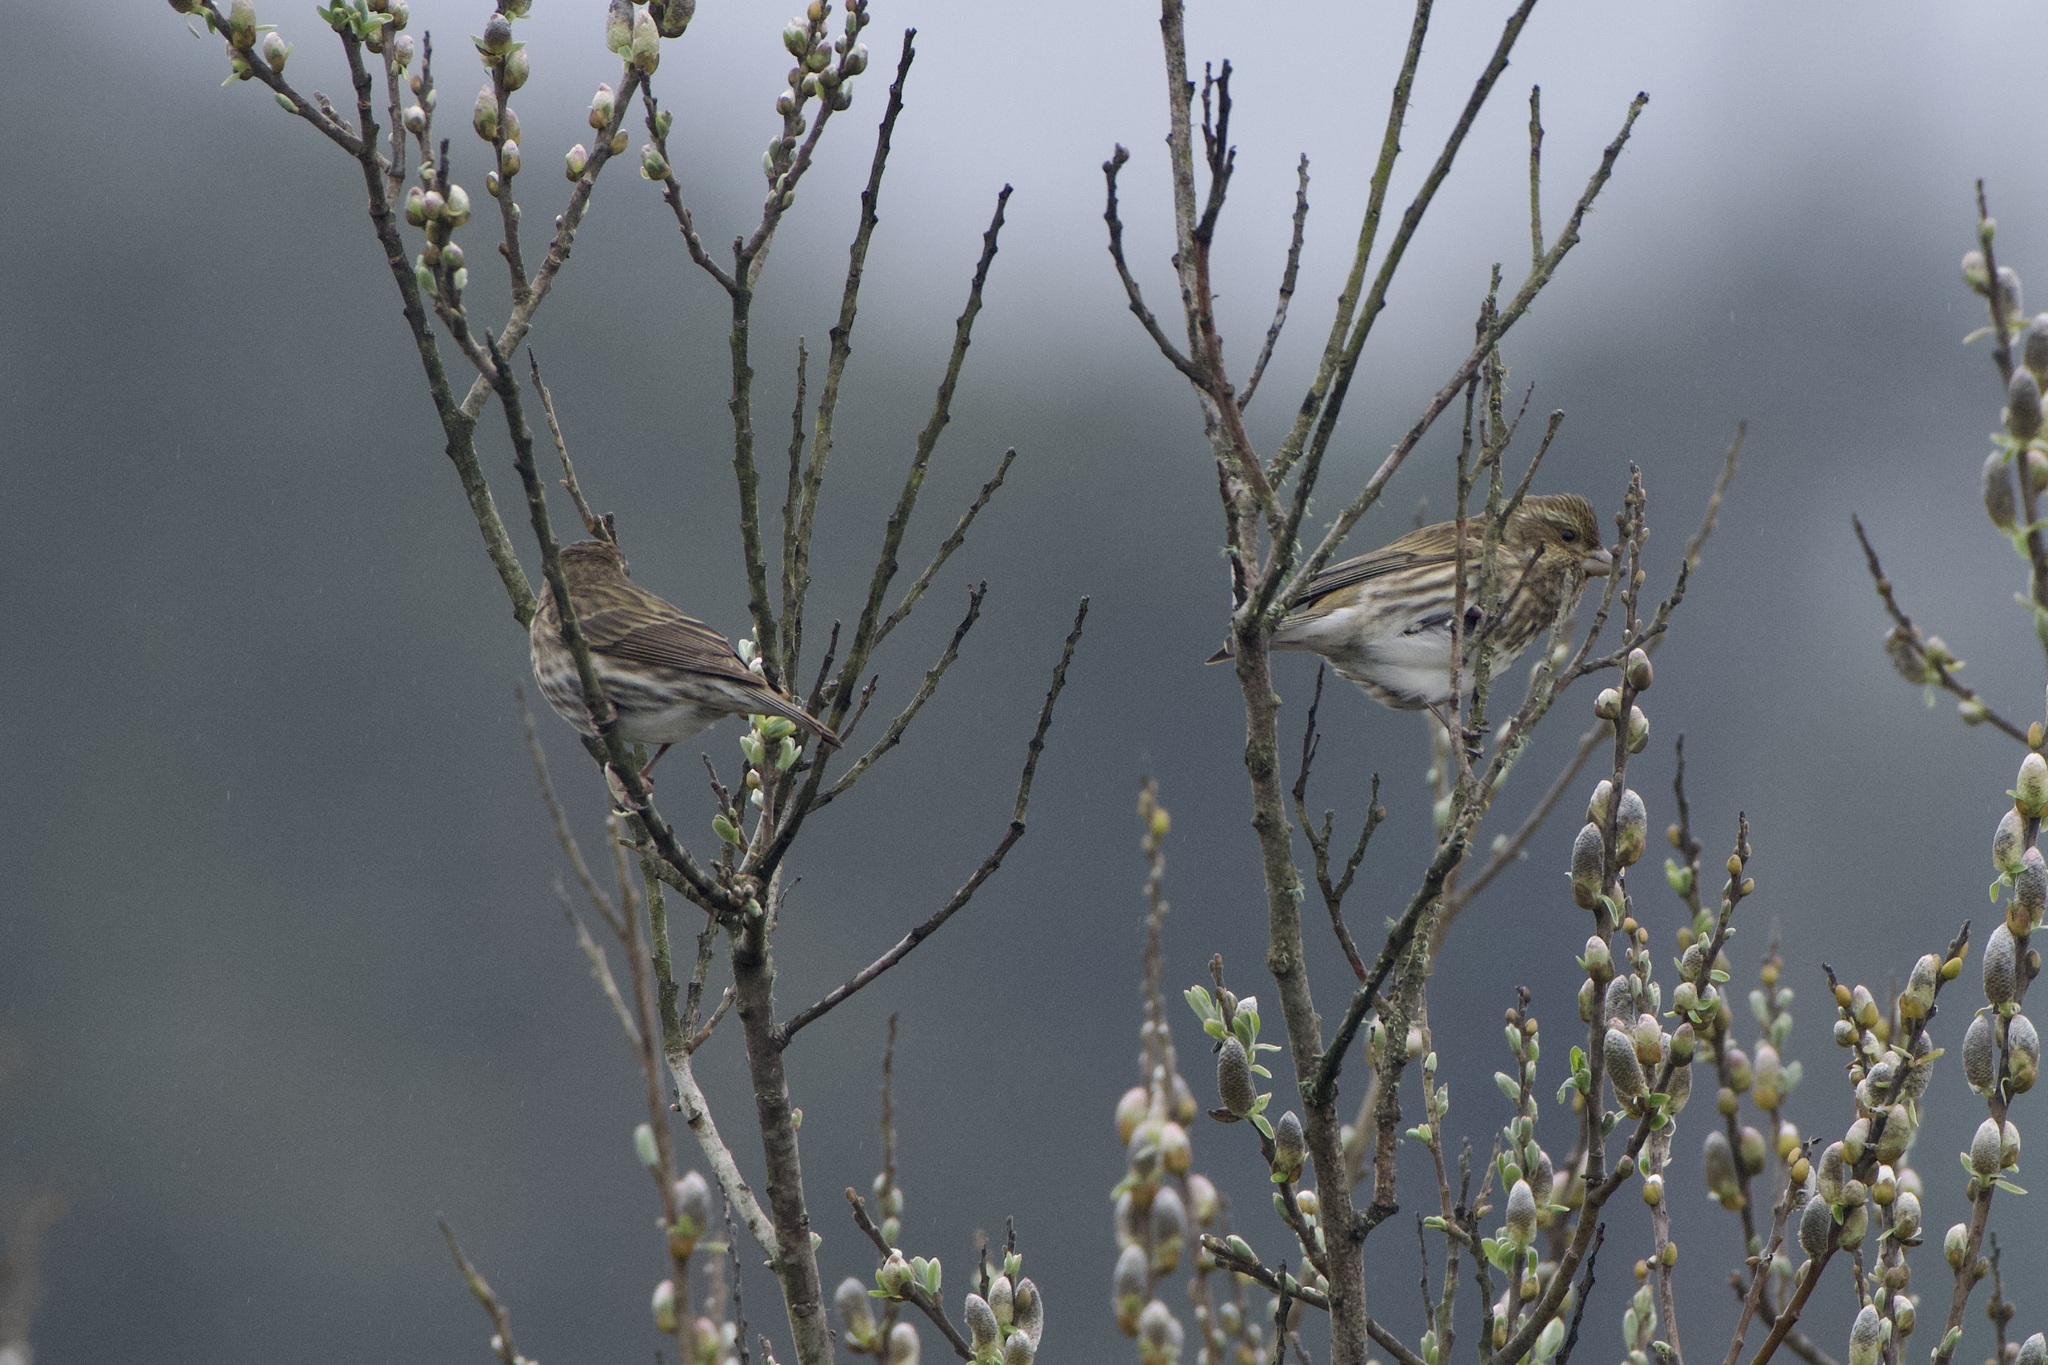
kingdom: Animalia
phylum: Chordata
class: Aves
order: Passeriformes
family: Fringillidae
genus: Haemorhous
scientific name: Haemorhous purpureus
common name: Purple finch
